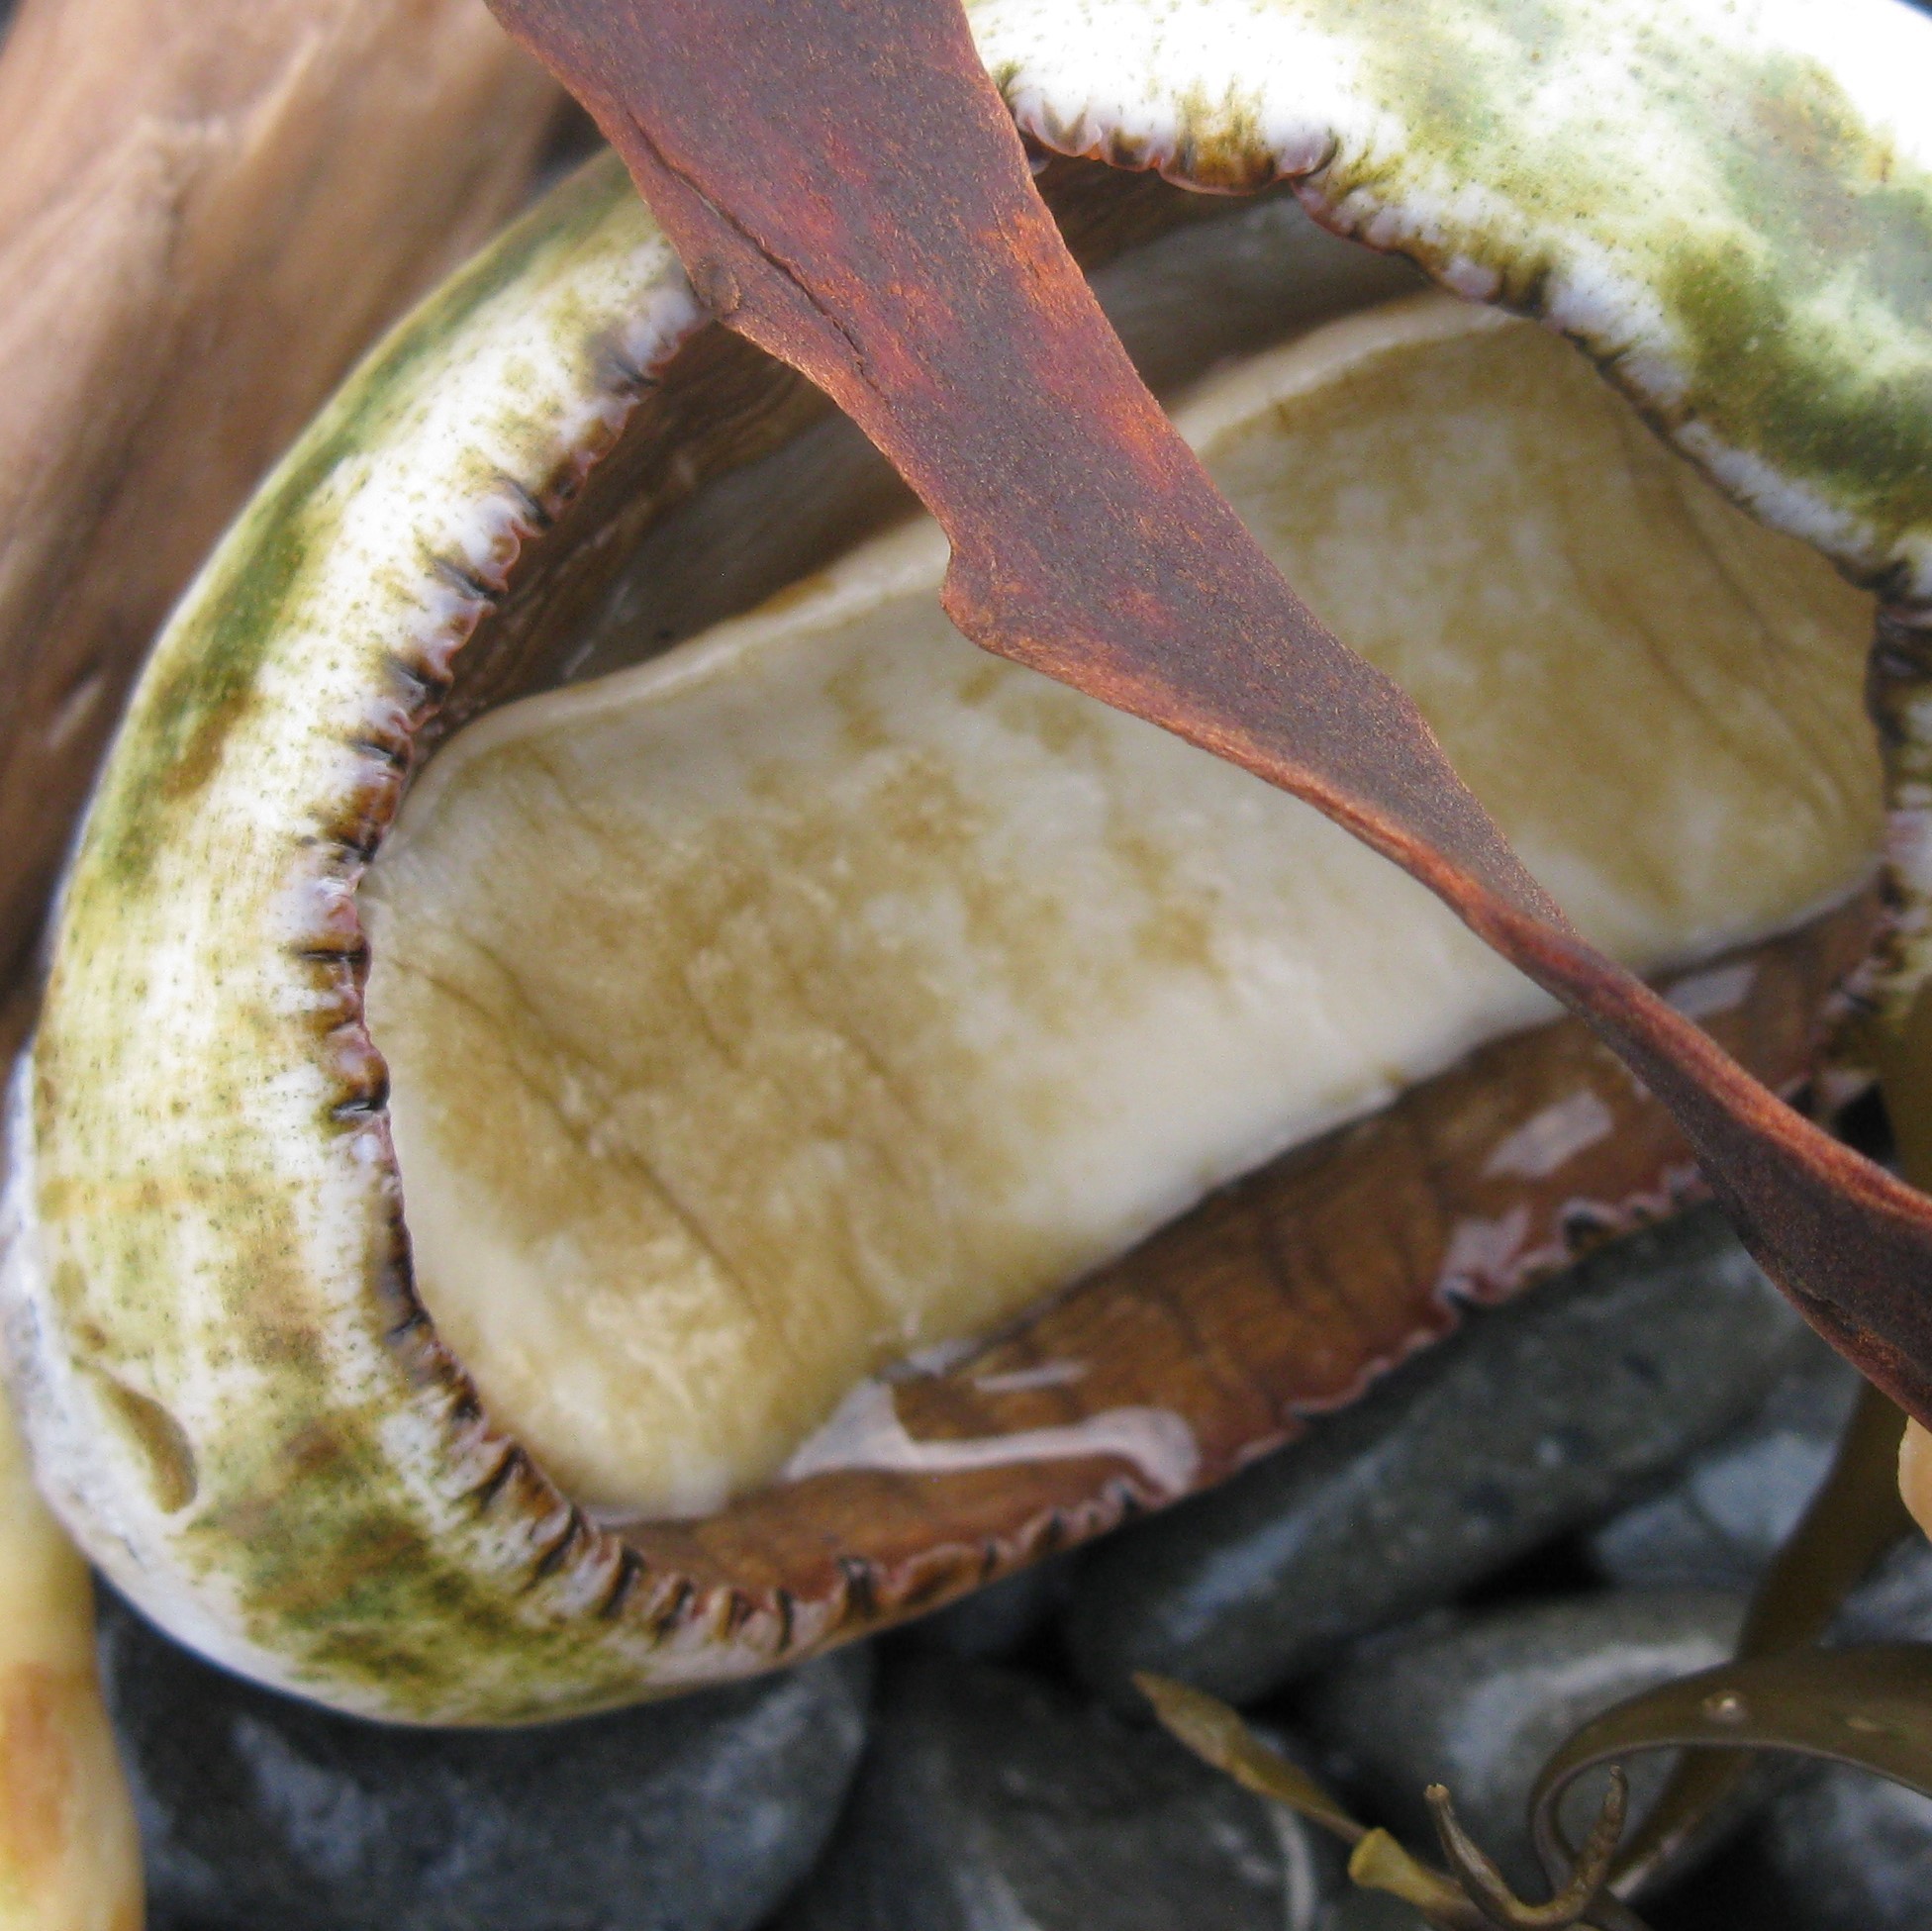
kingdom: Animalia
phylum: Mollusca
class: Polyplacophora
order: Callochitonida
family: Callochitonidae
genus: Eudoxochiton
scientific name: Eudoxochiton nobilis
